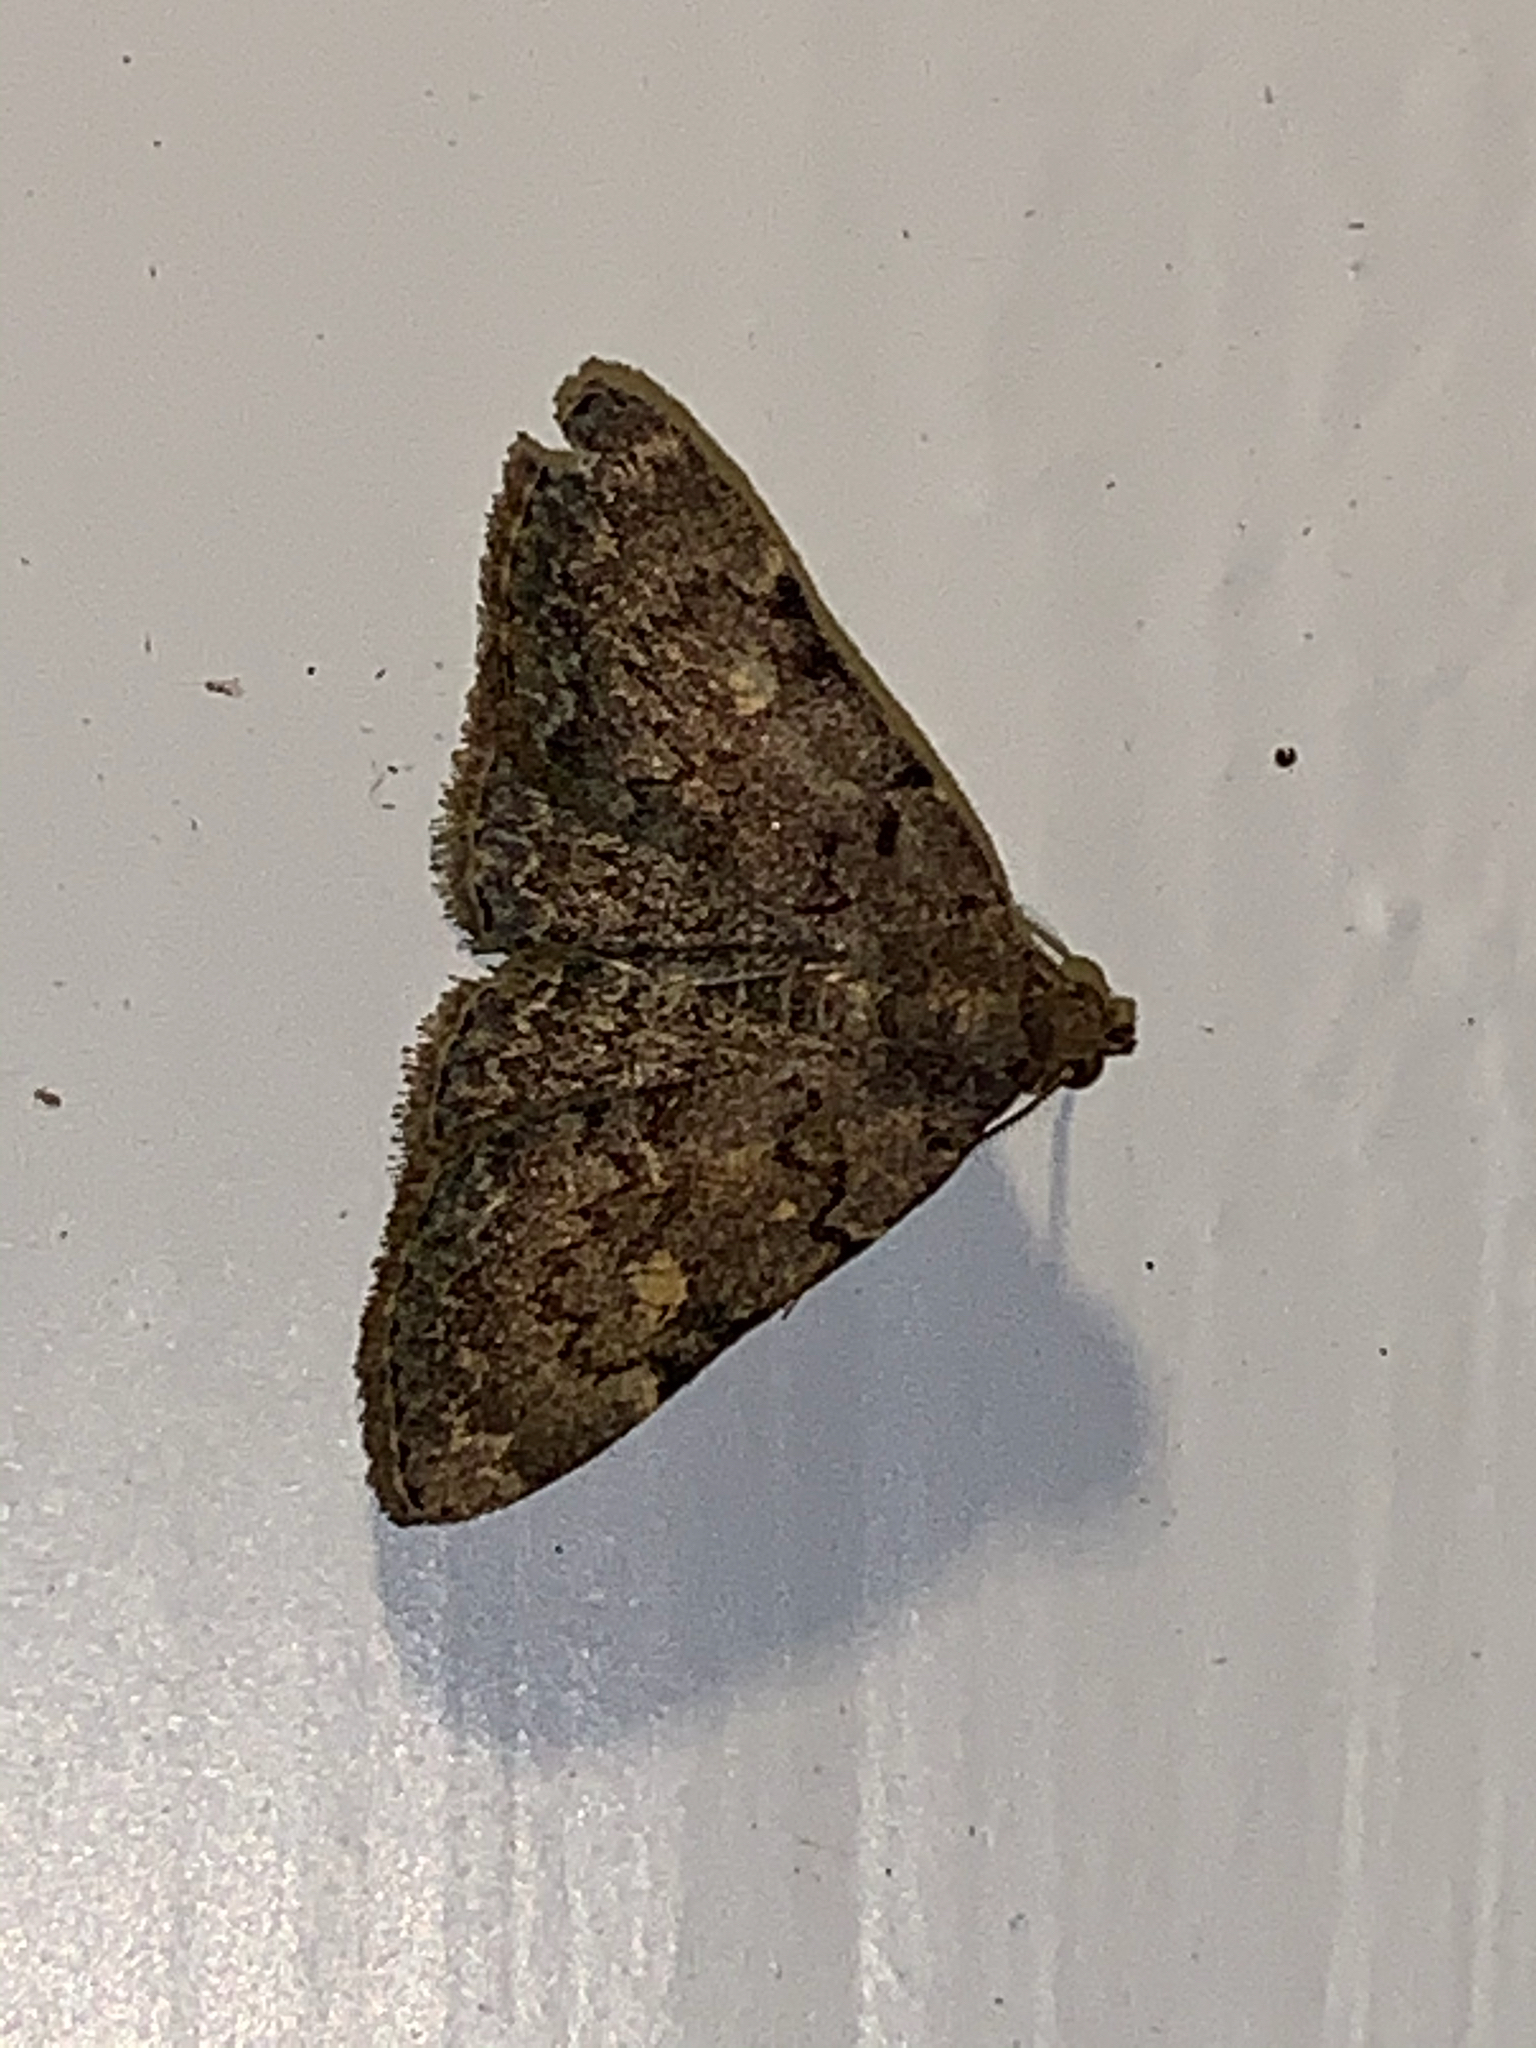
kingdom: Animalia
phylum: Arthropoda
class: Insecta
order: Lepidoptera
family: Erebidae
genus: Idia
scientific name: Idia aemula
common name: Common idia moth
